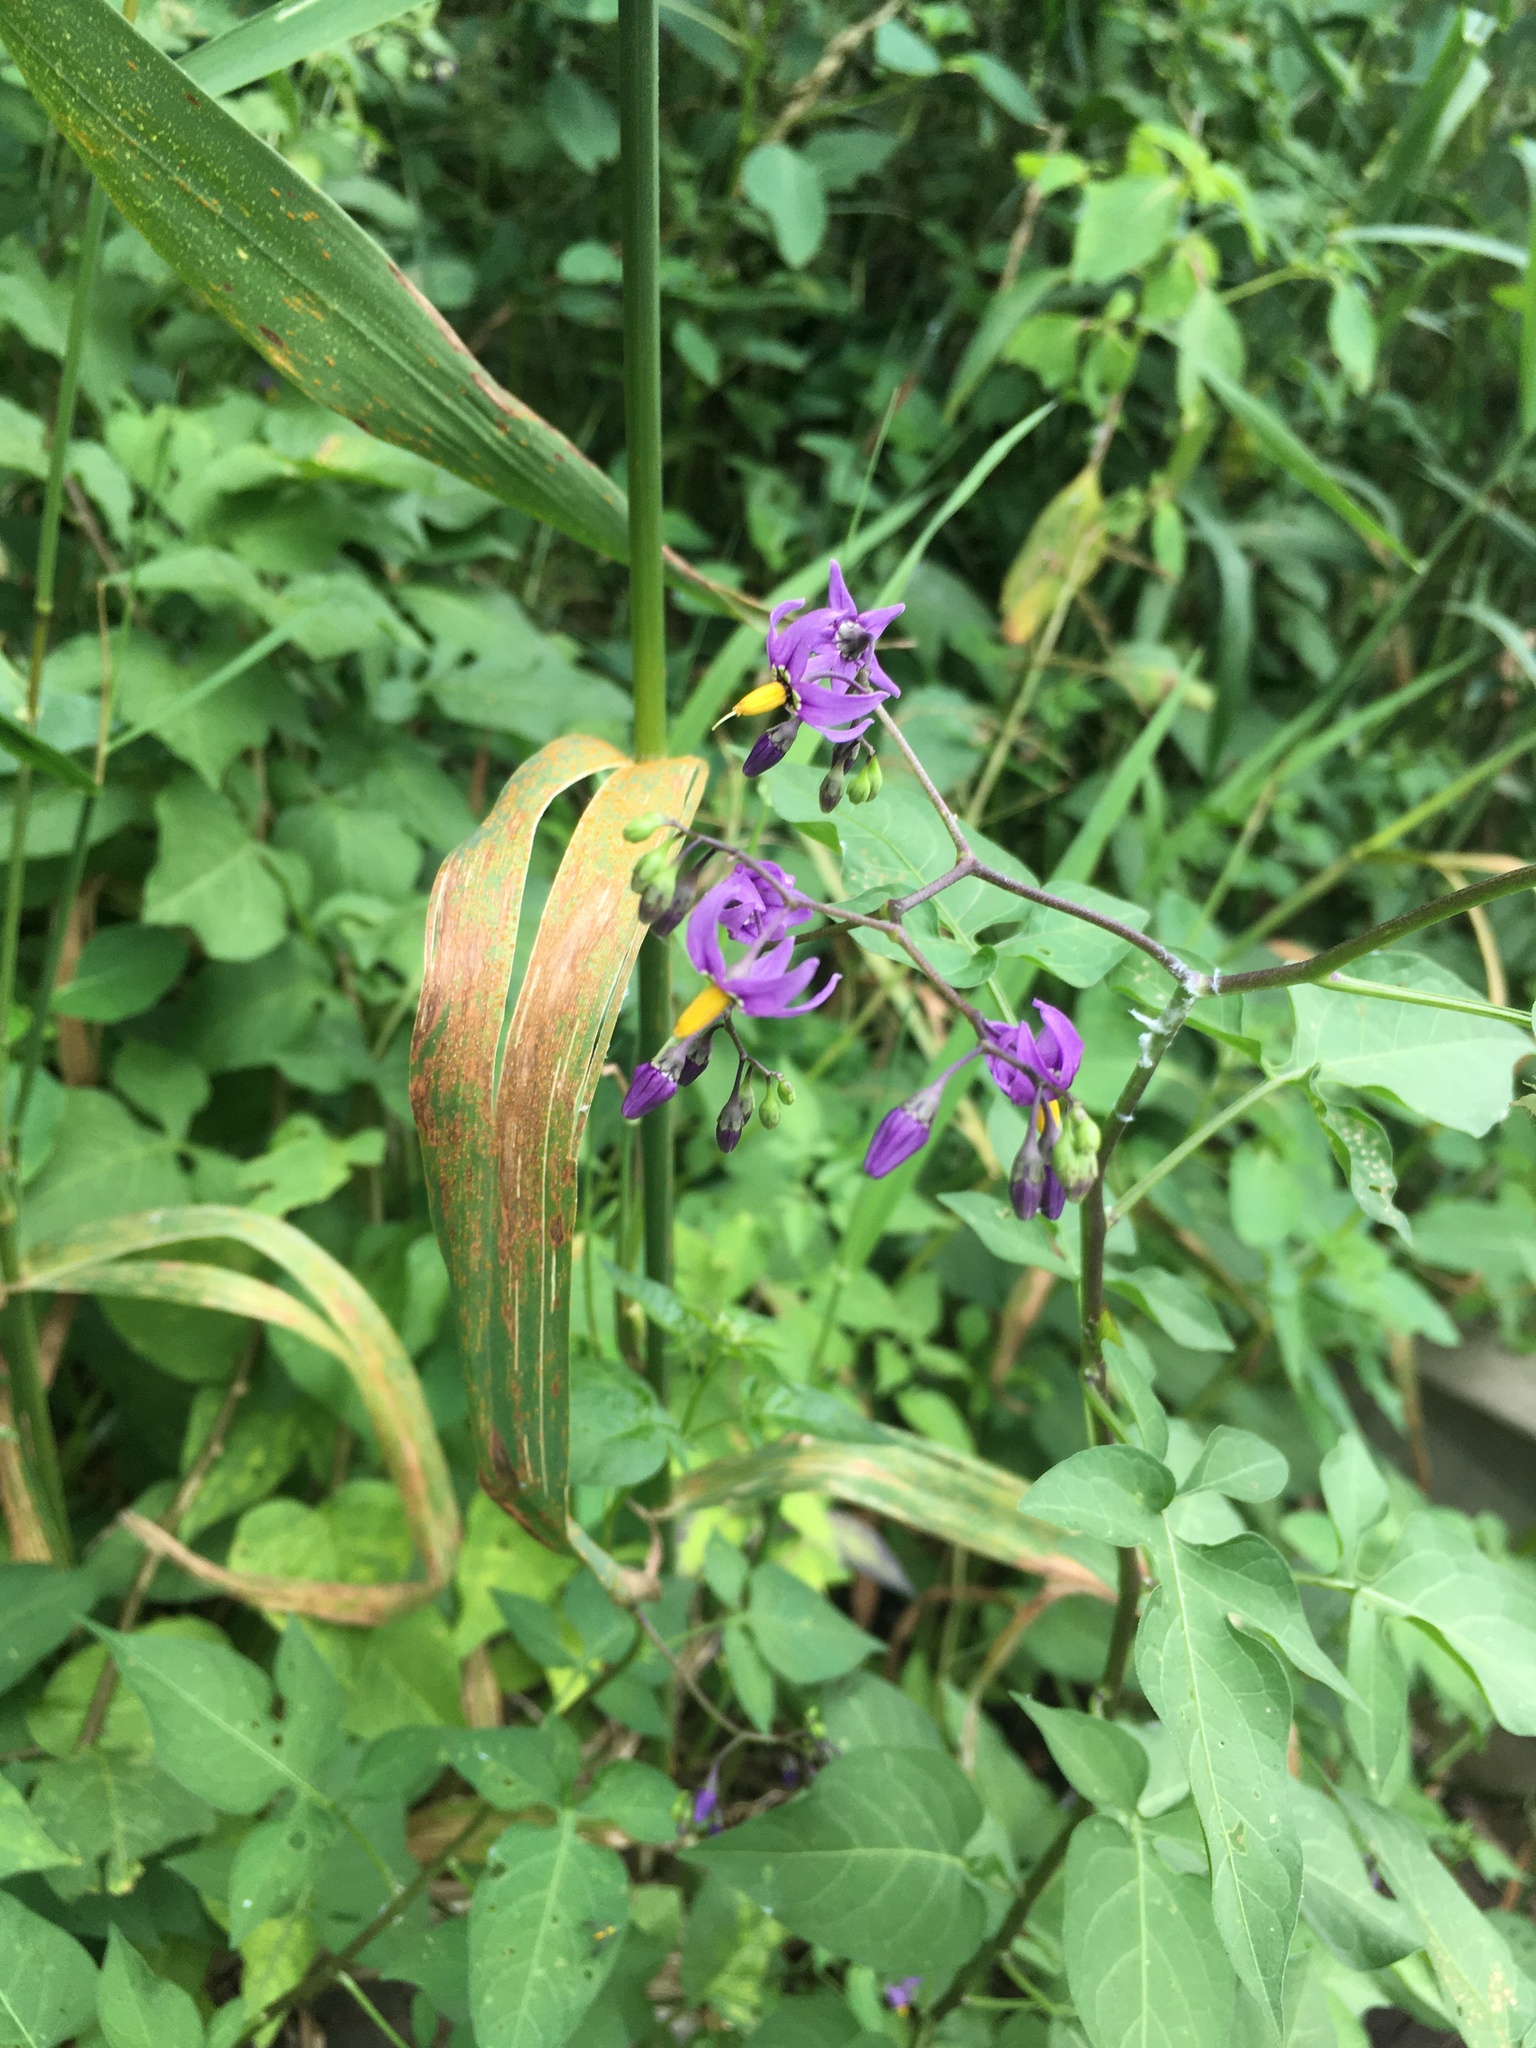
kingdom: Plantae
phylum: Tracheophyta
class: Magnoliopsida
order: Solanales
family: Solanaceae
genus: Solanum
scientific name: Solanum dulcamara
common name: Climbing nightshade
